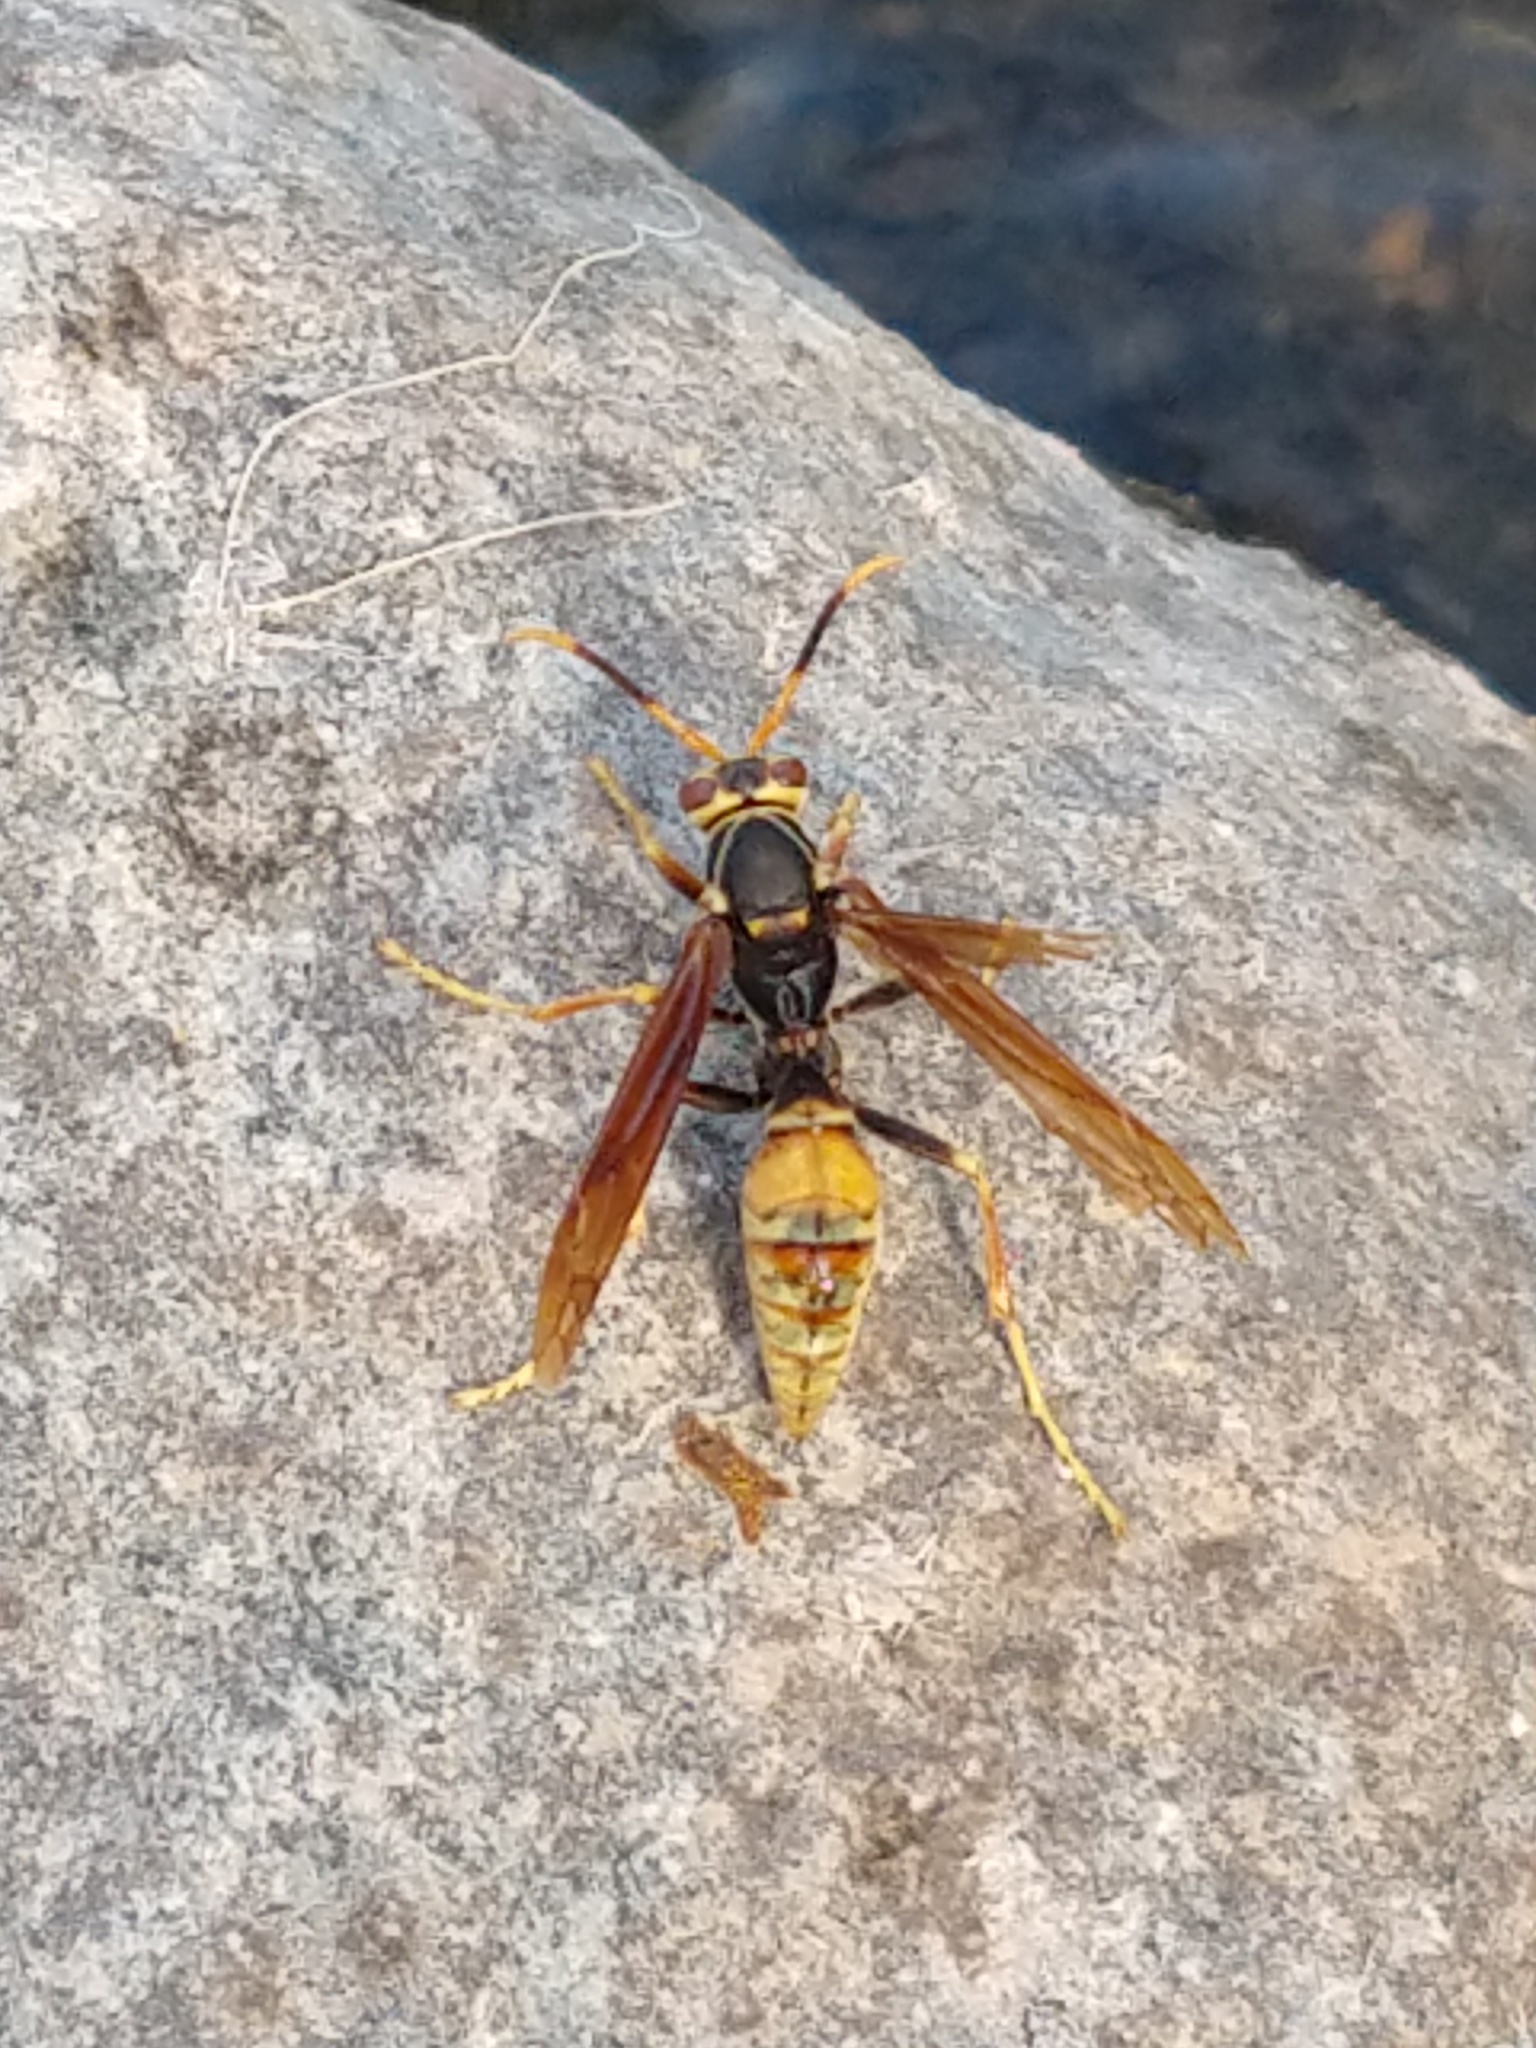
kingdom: Animalia
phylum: Arthropoda
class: Insecta
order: Hymenoptera
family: Eumenidae
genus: Polistes
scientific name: Polistes buyssoni
